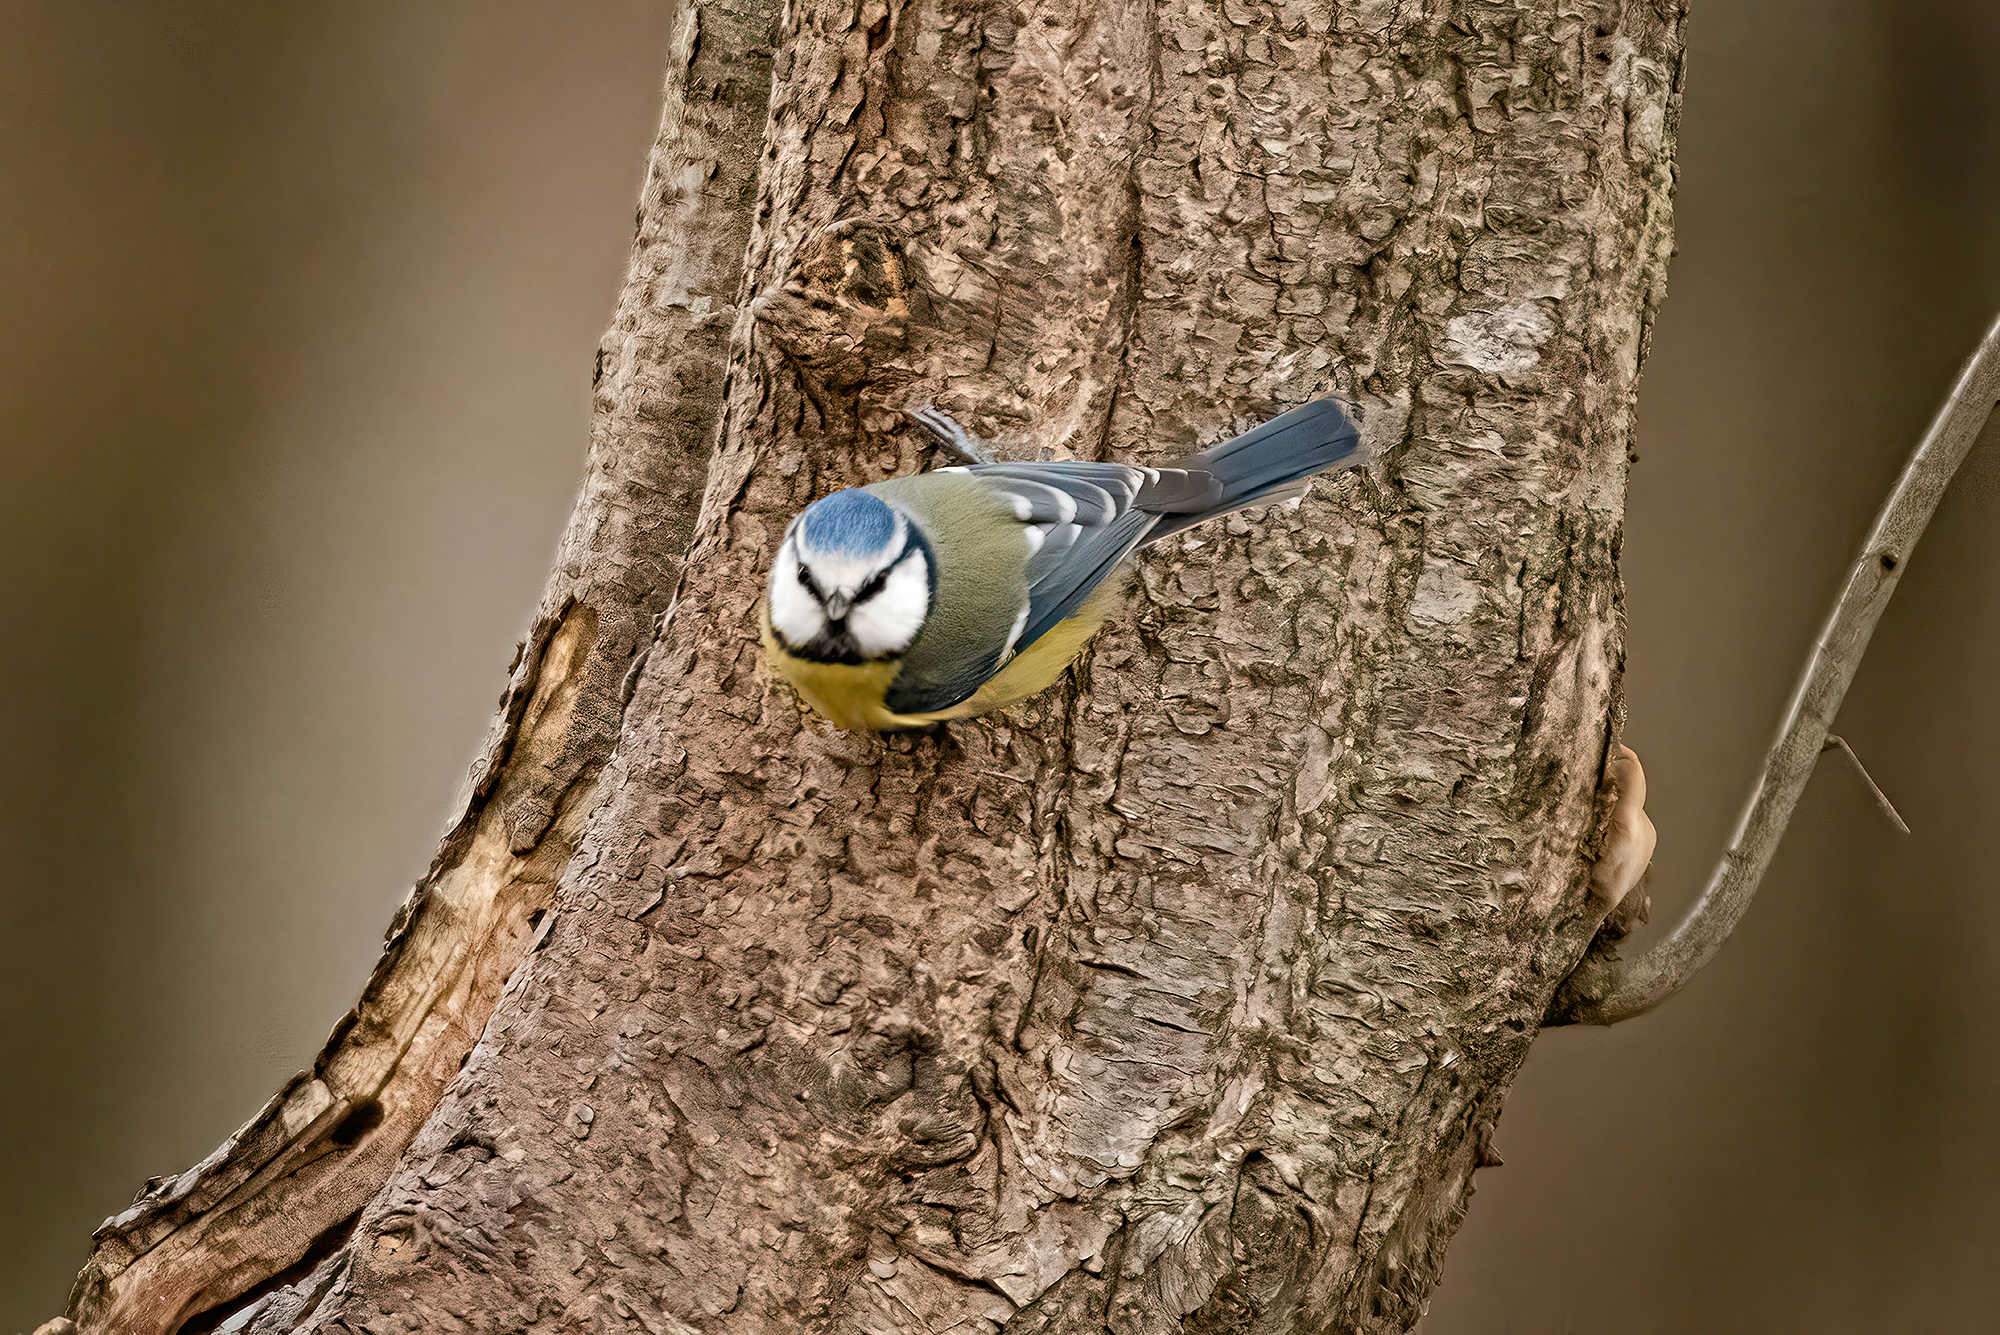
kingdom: Animalia
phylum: Chordata
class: Aves
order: Passeriformes
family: Paridae
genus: Cyanistes
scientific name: Cyanistes caeruleus
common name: Eurasian blue tit
